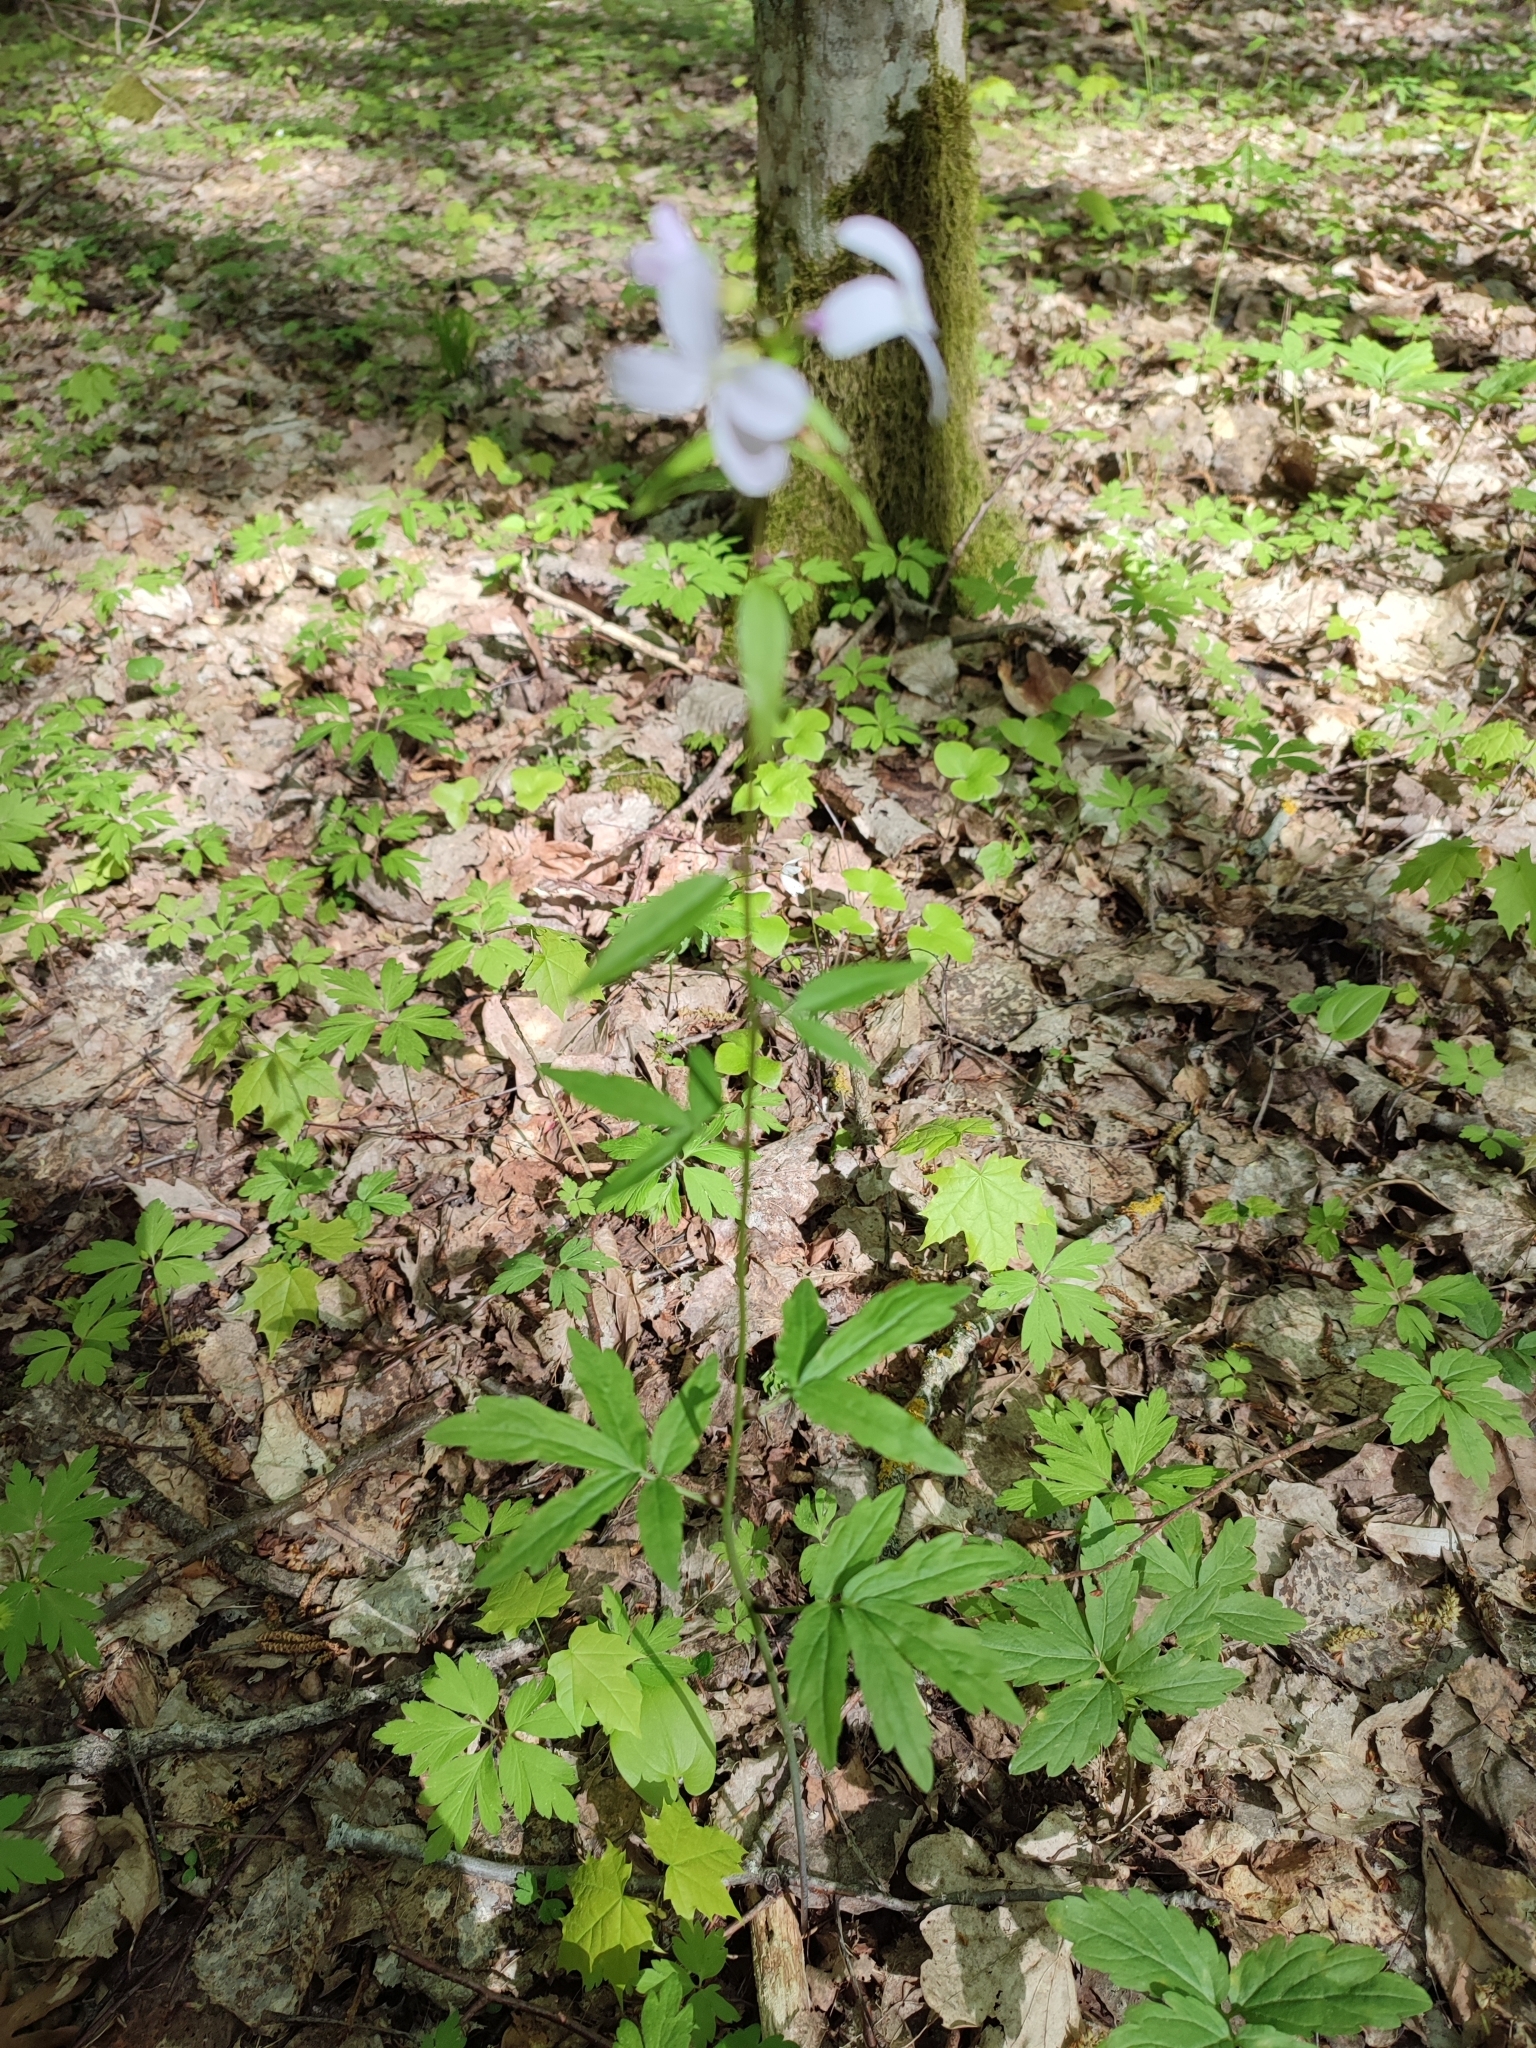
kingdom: Plantae
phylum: Tracheophyta
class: Magnoliopsida
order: Brassicales
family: Brassicaceae
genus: Cardamine
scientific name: Cardamine bulbifera
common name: Coralroot bittercress
